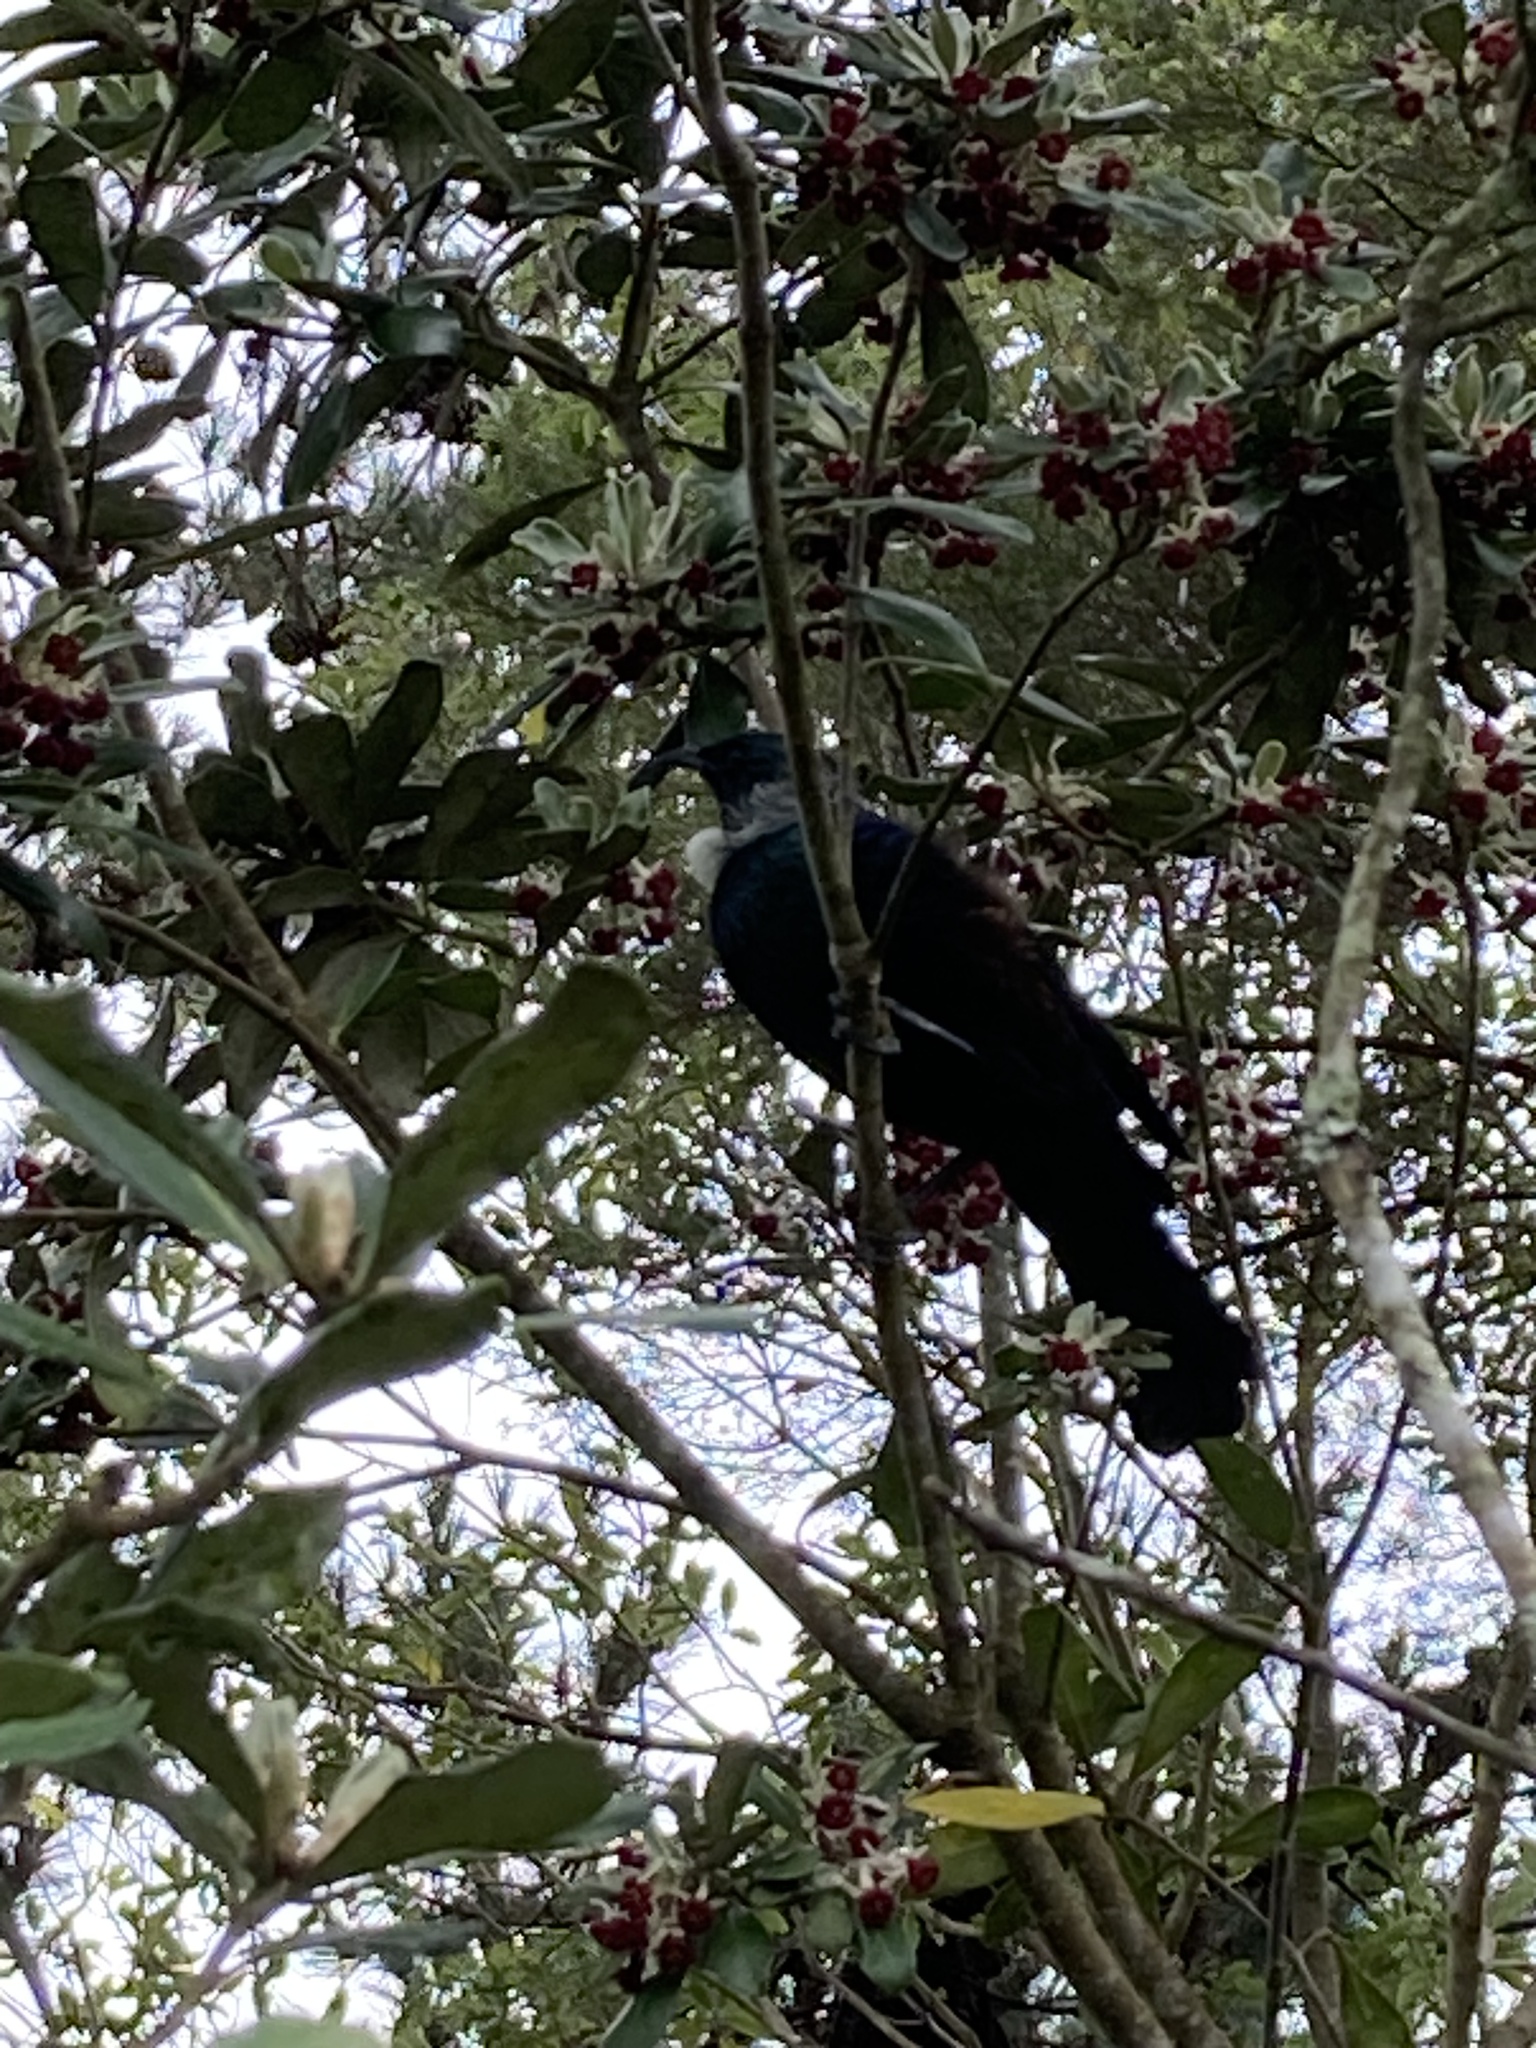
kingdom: Animalia
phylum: Chordata
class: Aves
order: Passeriformes
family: Meliphagidae
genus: Prosthemadera
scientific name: Prosthemadera novaeseelandiae
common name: Tui
